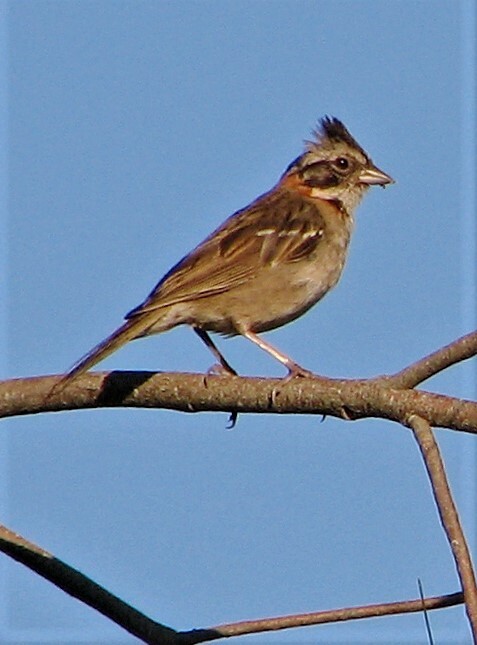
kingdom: Animalia
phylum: Chordata
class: Aves
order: Passeriformes
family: Passerellidae
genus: Zonotrichia
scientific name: Zonotrichia capensis
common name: Rufous-collared sparrow
